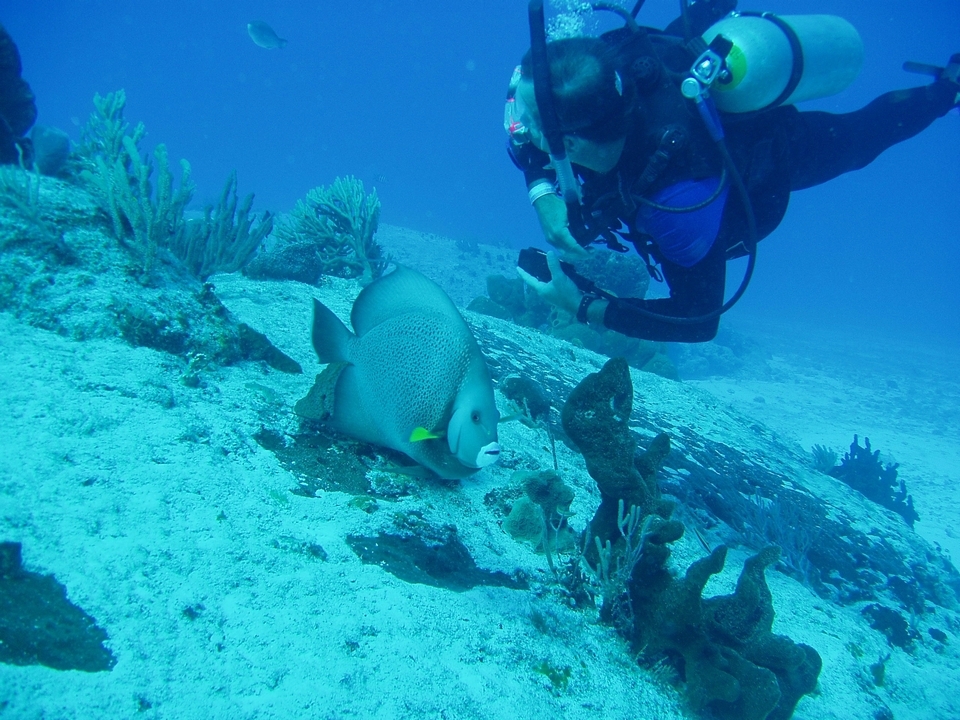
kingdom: Animalia
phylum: Chordata
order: Perciformes
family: Pomacanthidae
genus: Pomacanthus
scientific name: Pomacanthus arcuatus
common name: Gray angelfish
